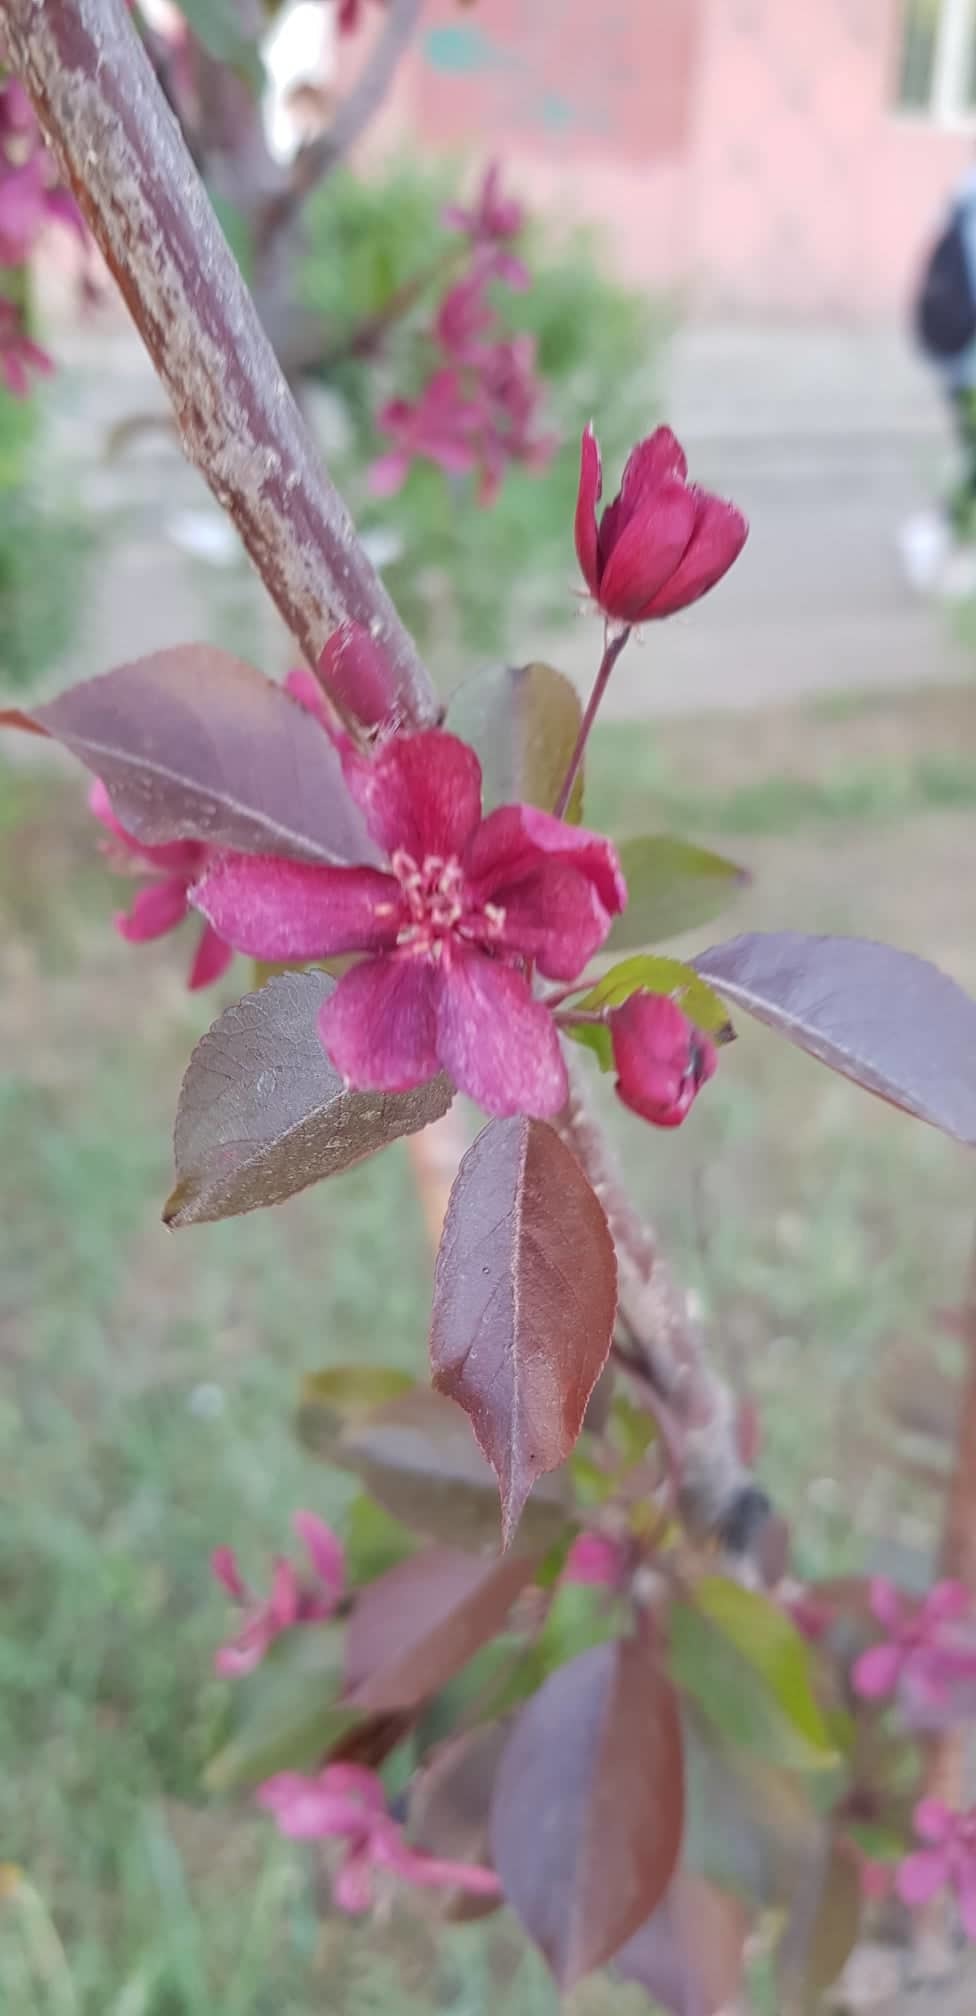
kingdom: Plantae
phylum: Tracheophyta
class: Magnoliopsida
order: Rosales
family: Rosaceae
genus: Malus
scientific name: Malus baccata
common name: Siberian crab
